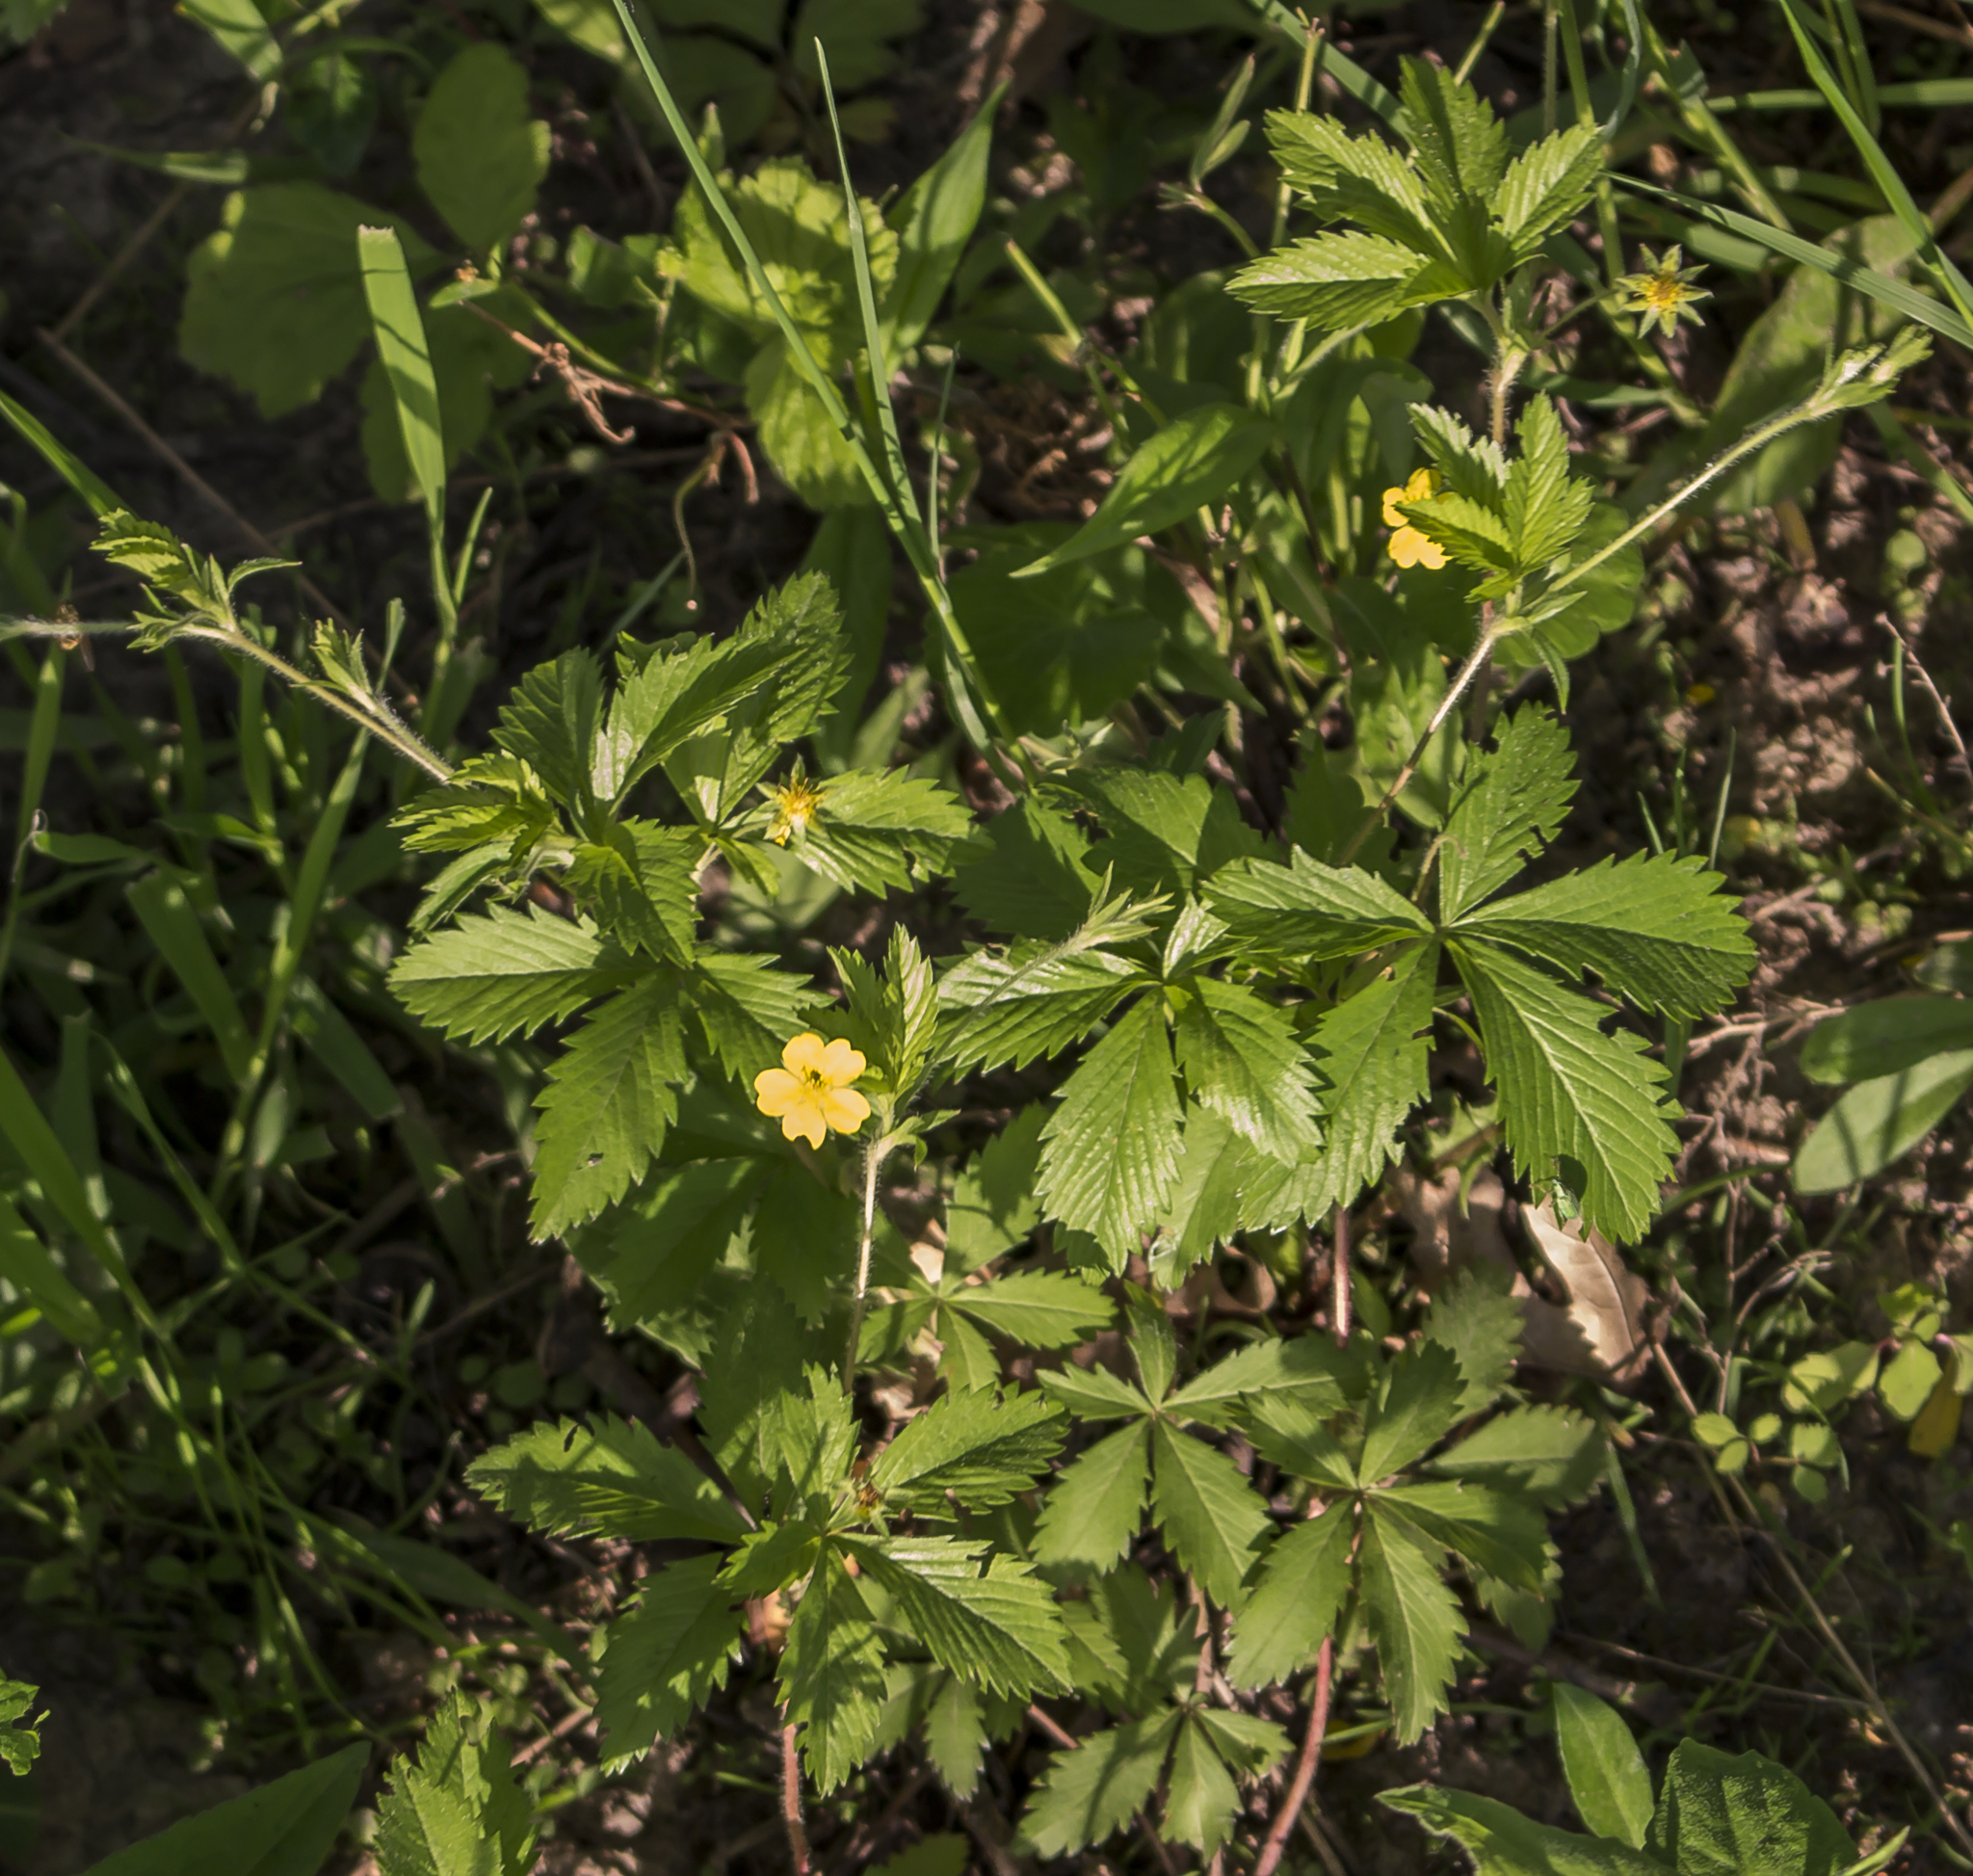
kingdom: Plantae
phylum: Tracheophyta
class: Magnoliopsida
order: Rosales
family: Rosaceae
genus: Potentilla
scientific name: Potentilla simplex
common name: Old field cinquefoil
